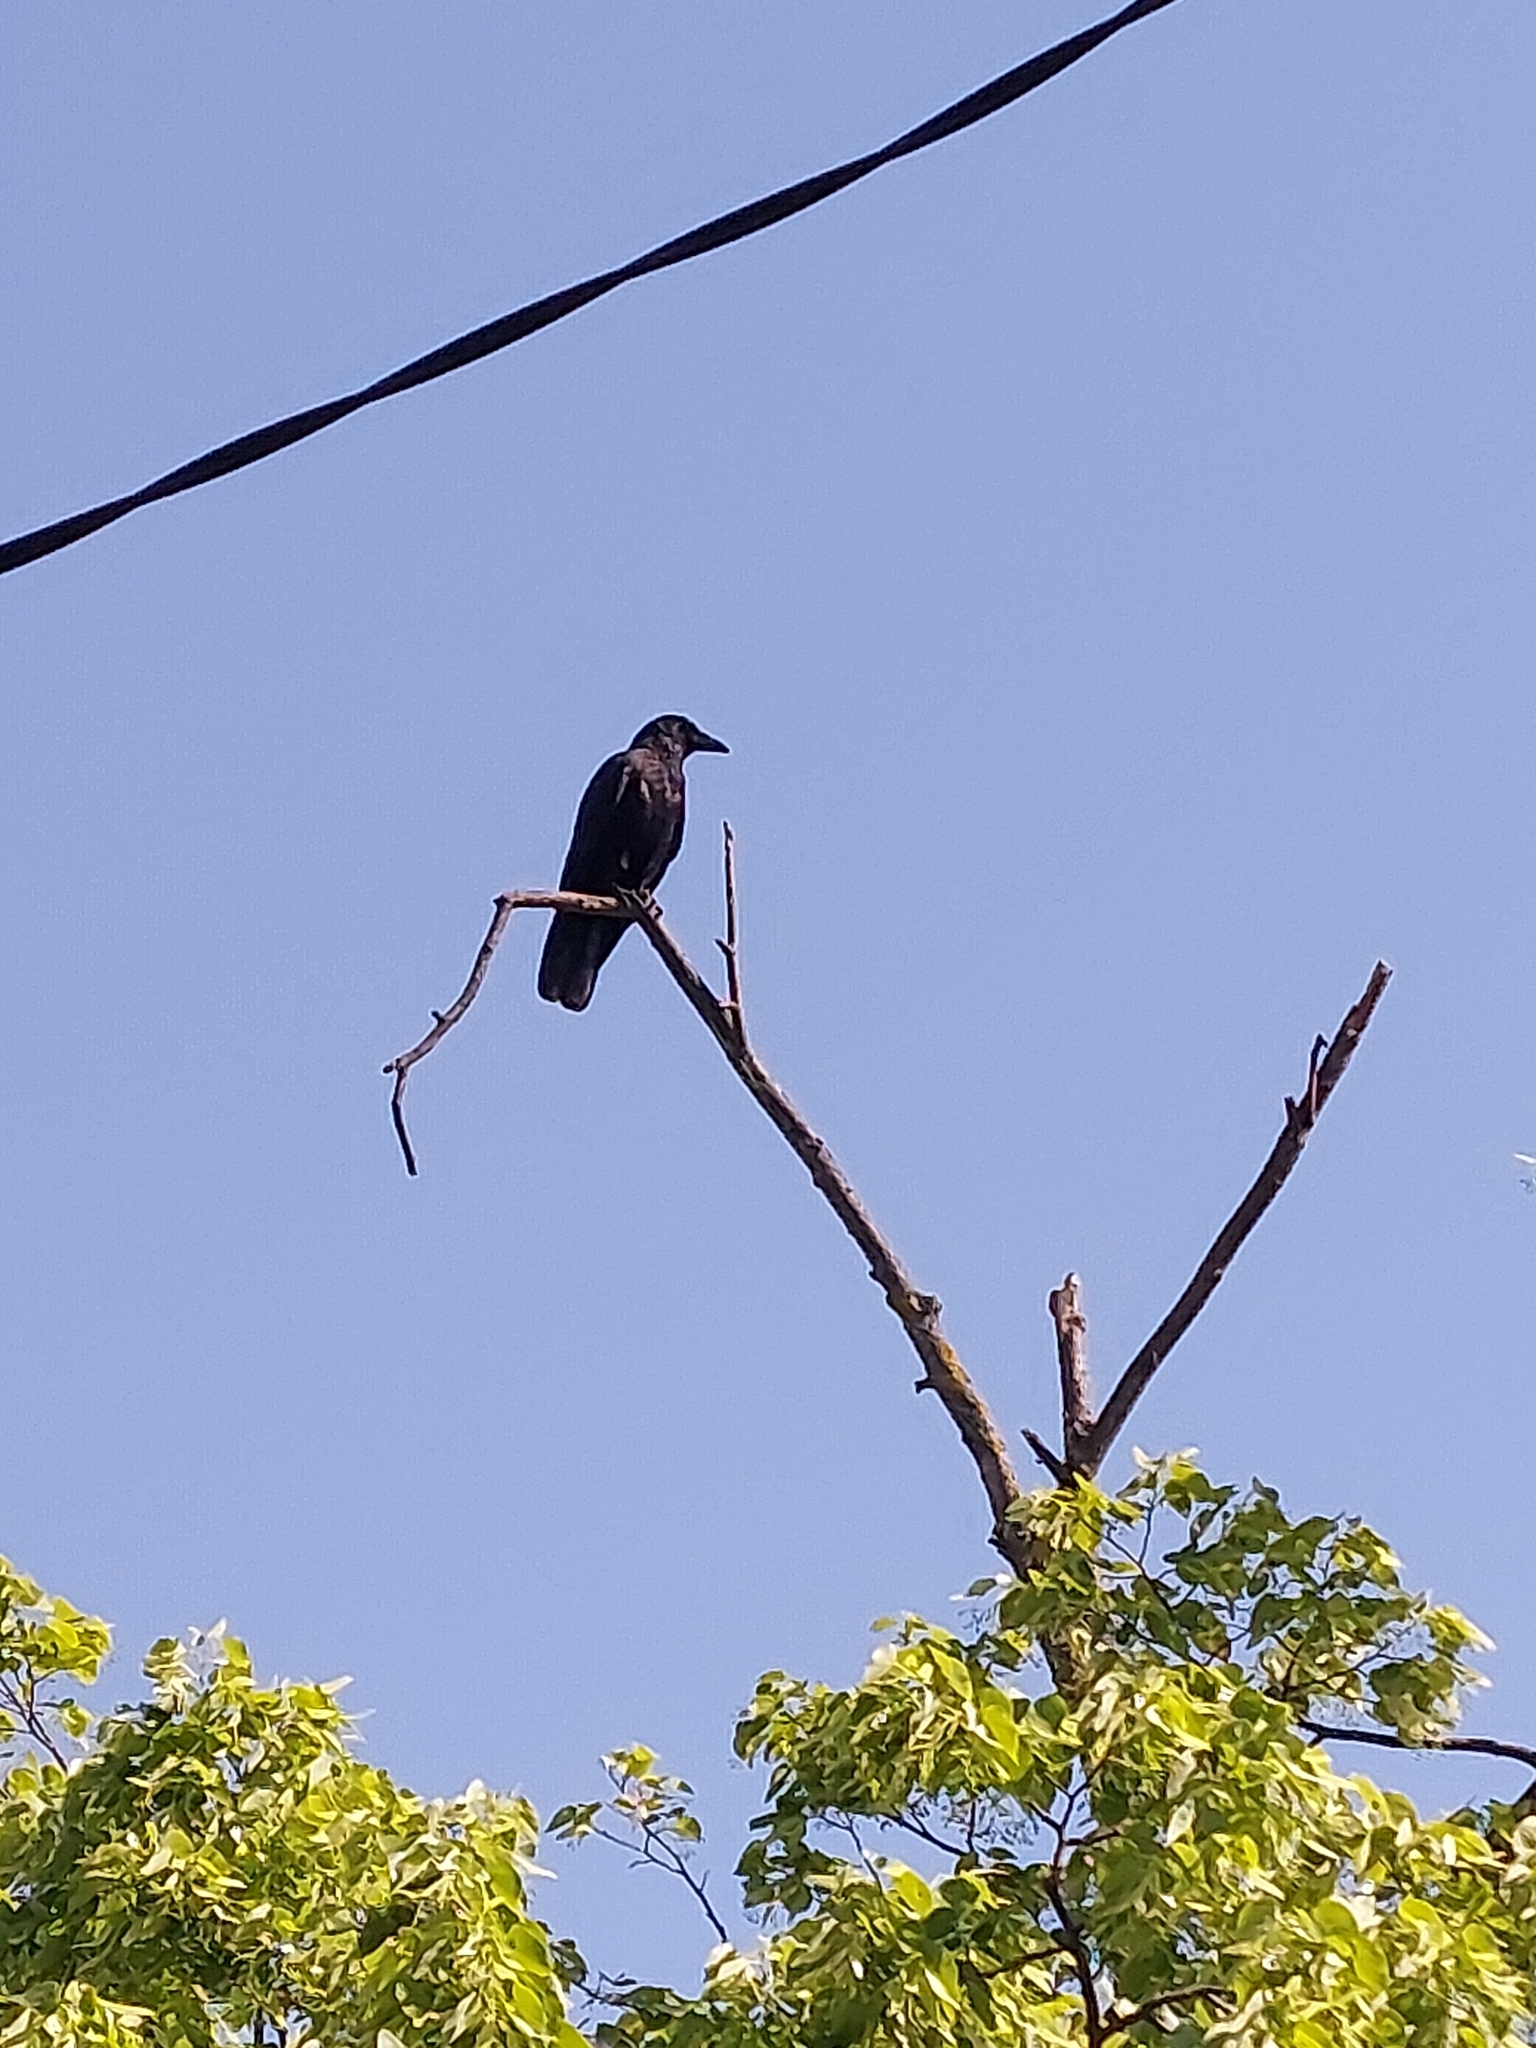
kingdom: Animalia
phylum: Chordata
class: Aves
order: Passeriformes
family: Corvidae
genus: Corvus
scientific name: Corvus corone
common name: Carrion crow
